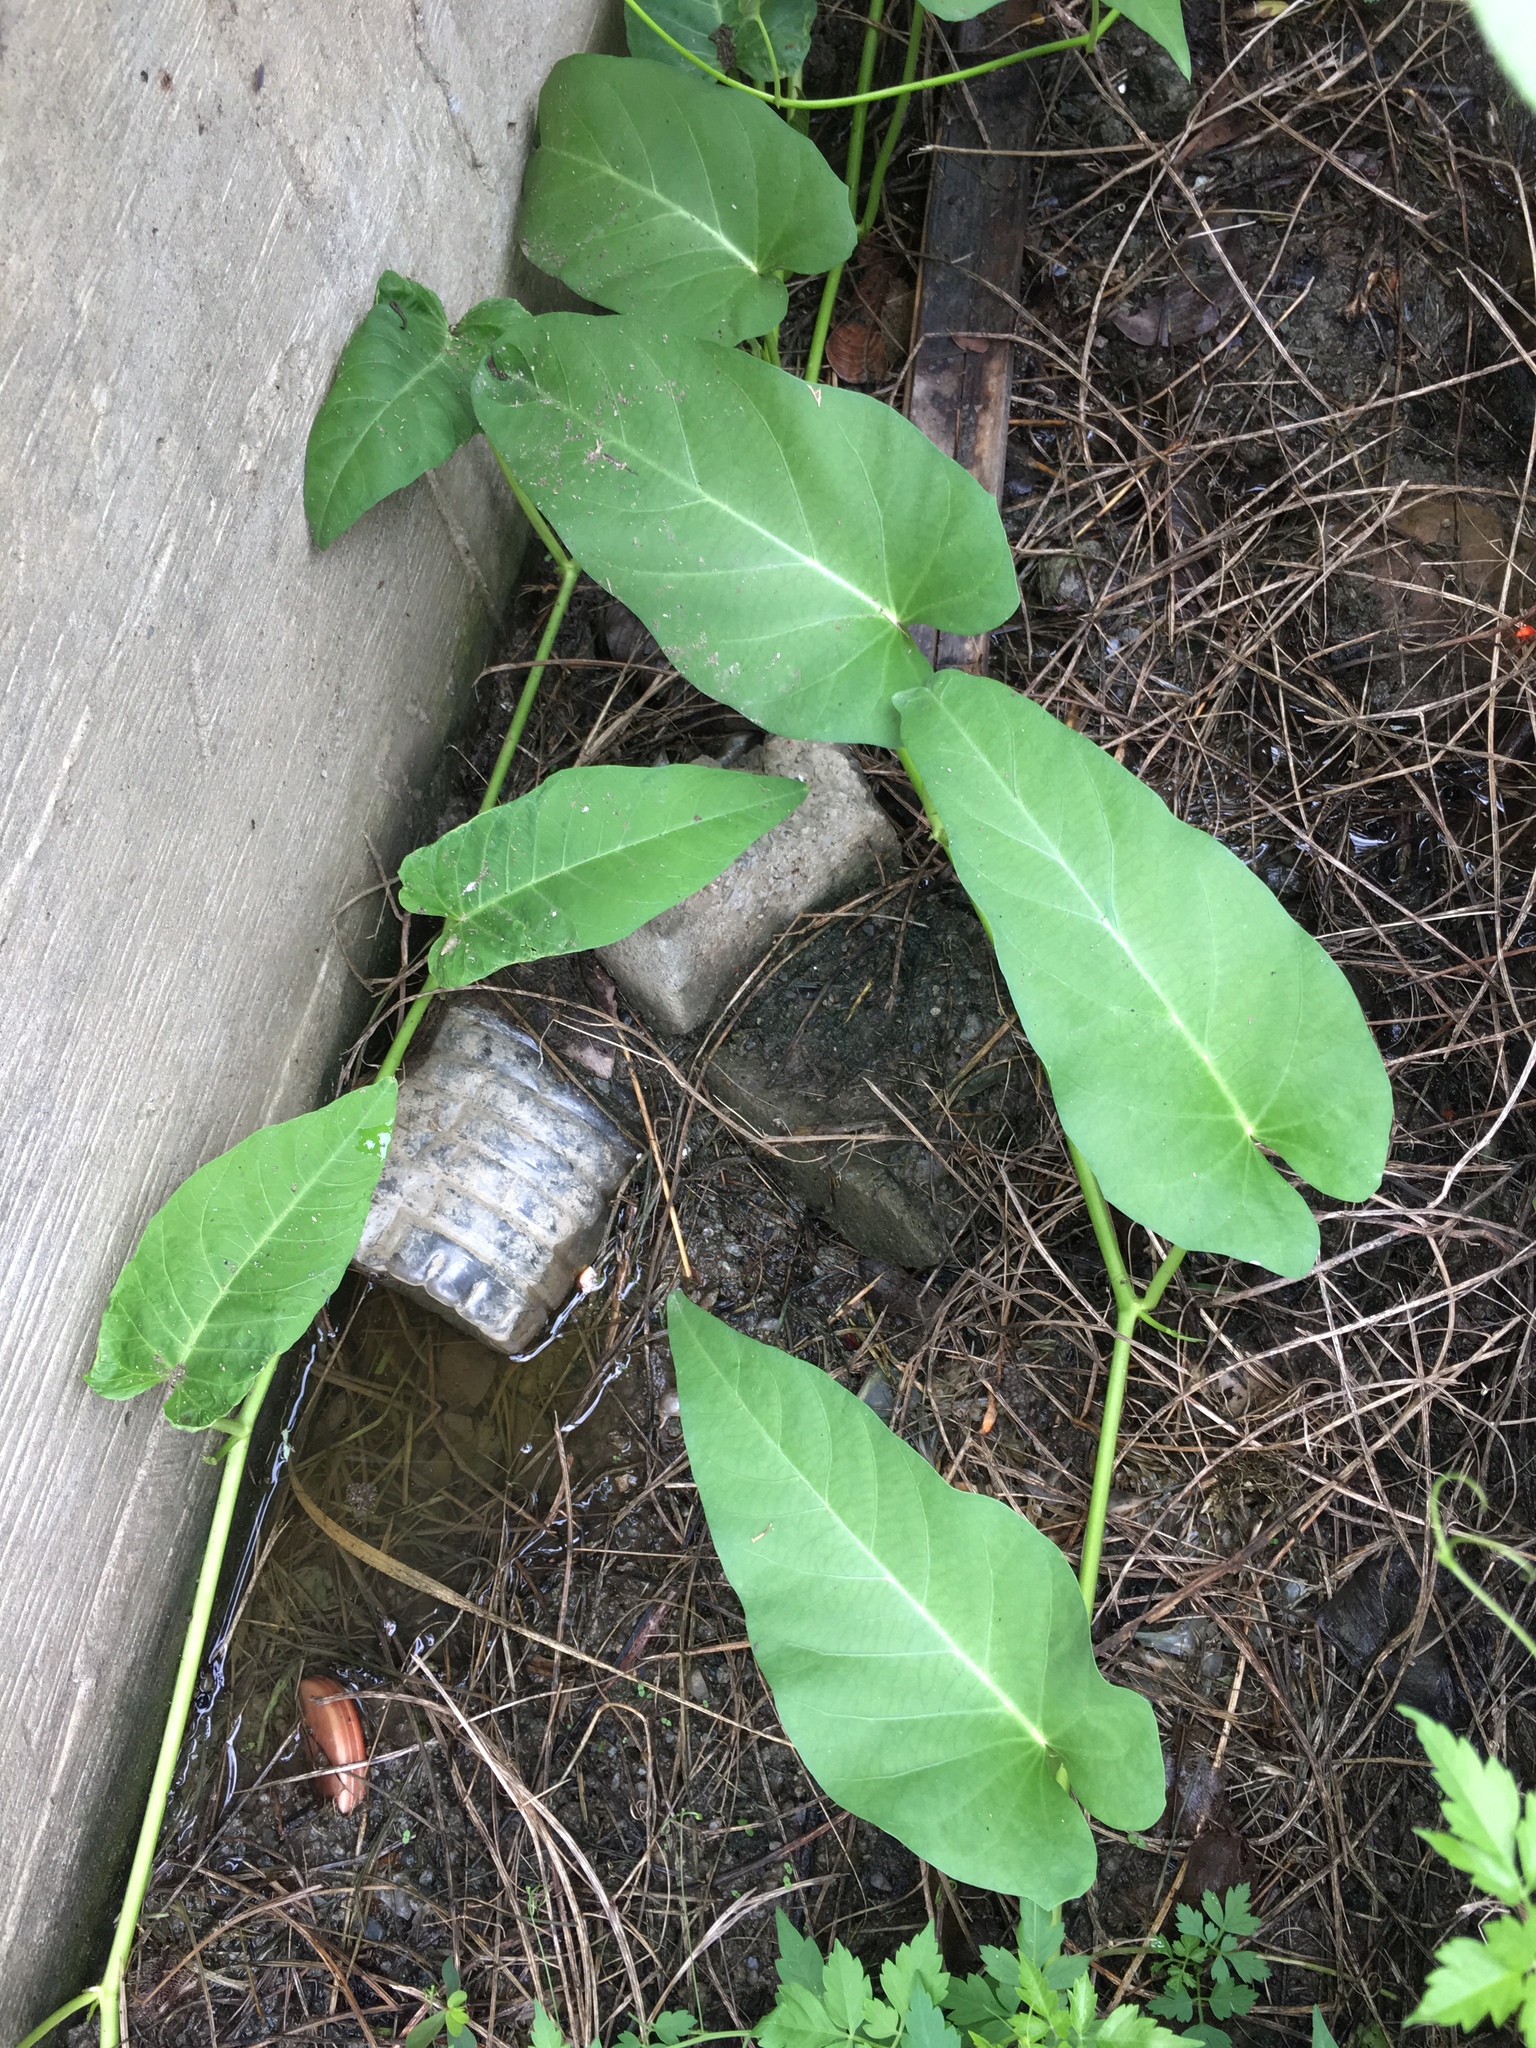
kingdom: Plantae
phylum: Tracheophyta
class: Magnoliopsida
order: Solanales
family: Convolvulaceae
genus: Ipomoea
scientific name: Ipomoea aquatica
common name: Swamp morning-glory
